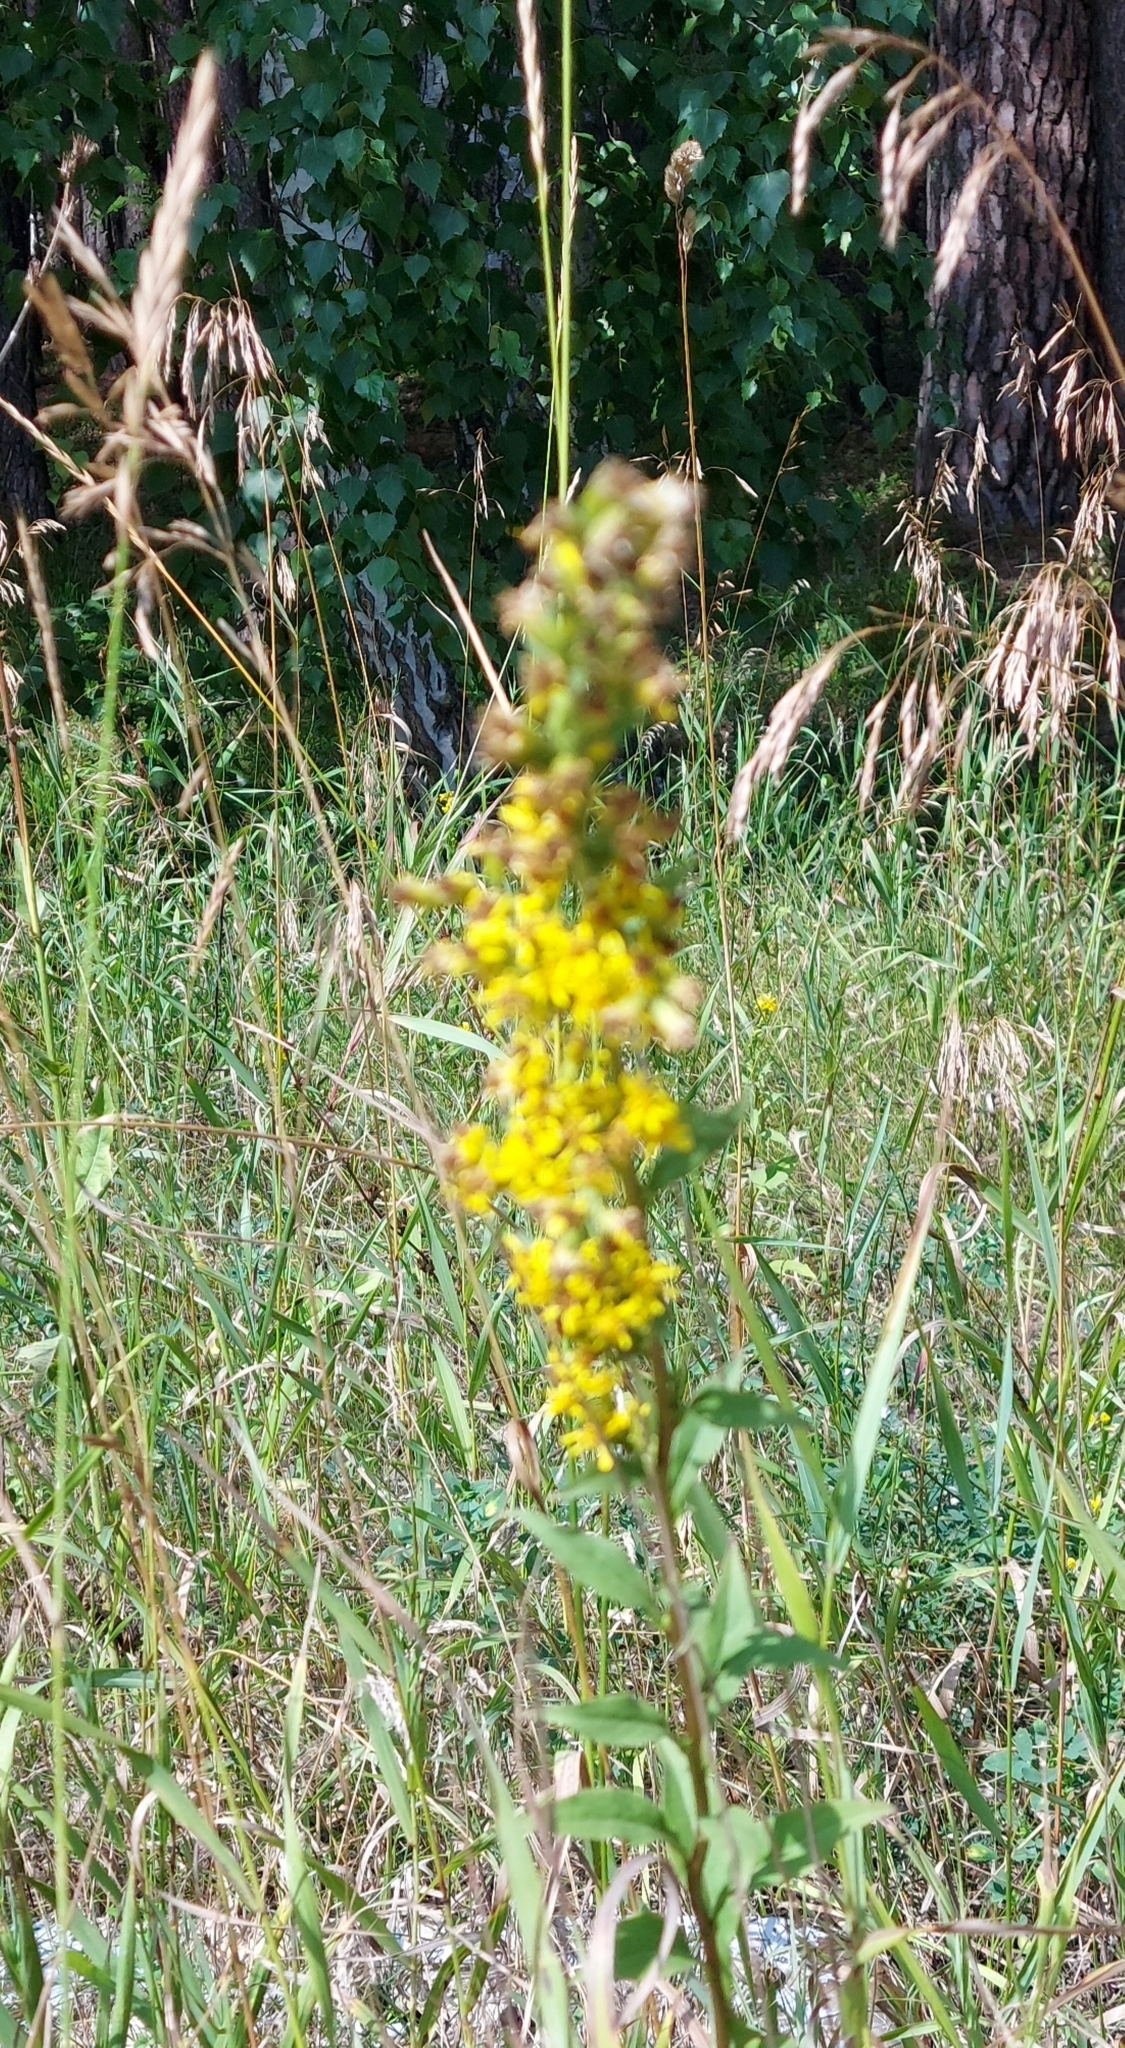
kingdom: Plantae
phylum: Tracheophyta
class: Magnoliopsida
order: Asterales
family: Asteraceae
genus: Solidago
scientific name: Solidago virgaurea
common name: Goldenrod
